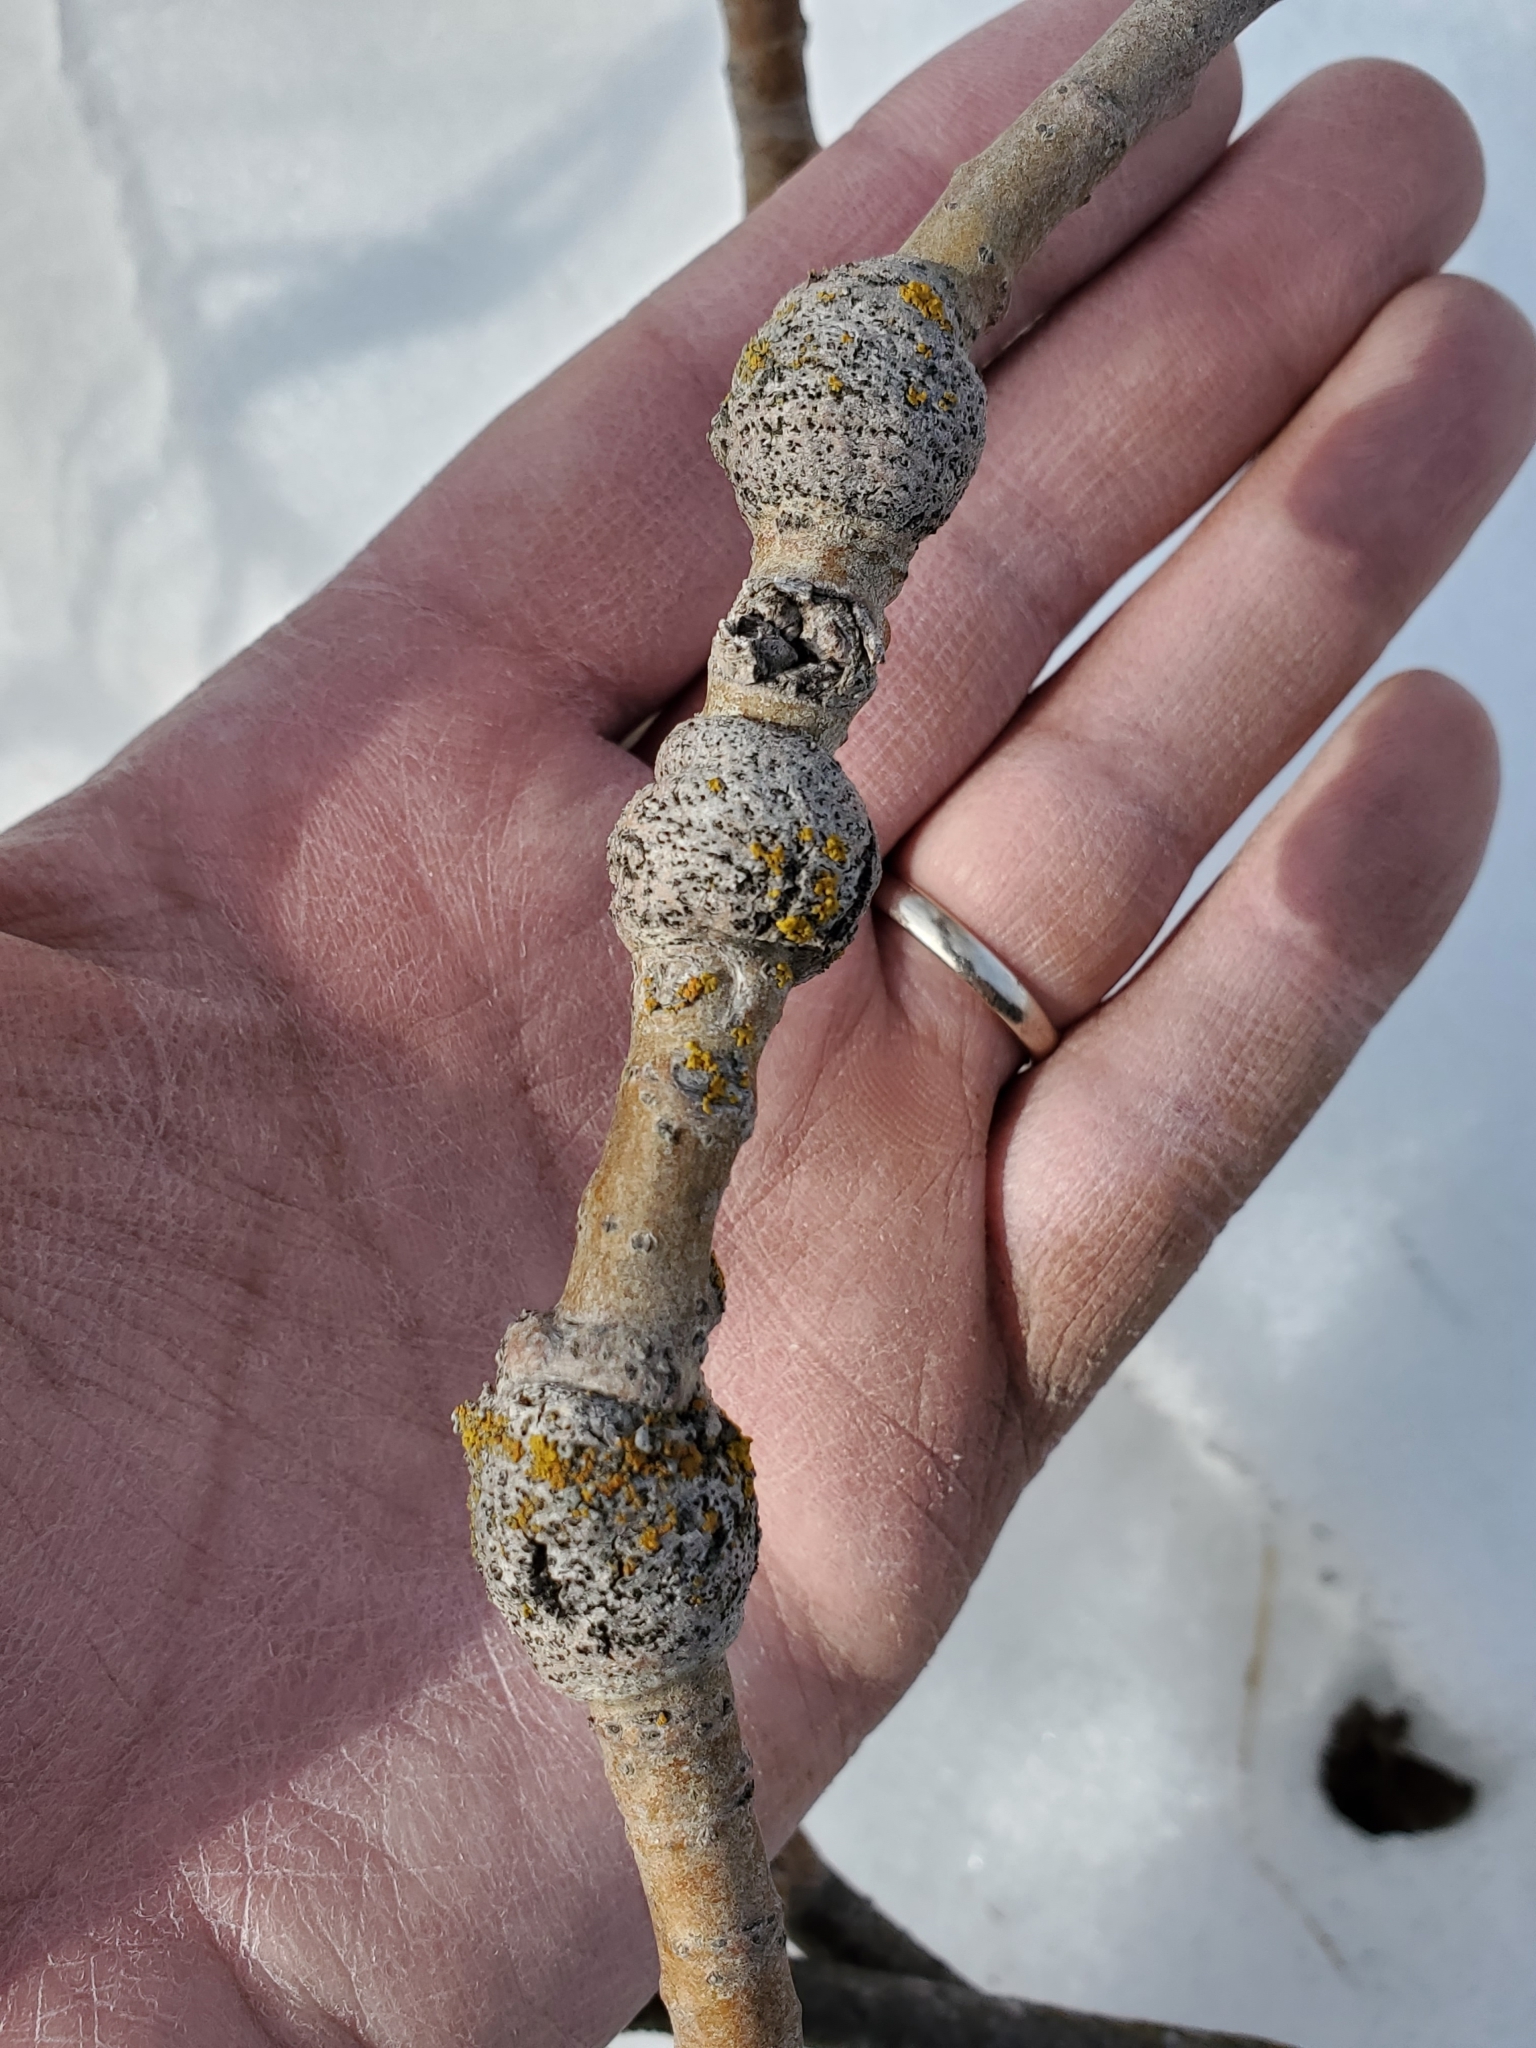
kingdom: Animalia
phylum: Arthropoda
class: Insecta
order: Diptera
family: Agromyzidae
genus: Euhexomyza
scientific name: Euhexomyza schineri
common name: Poplar twiggall fly
